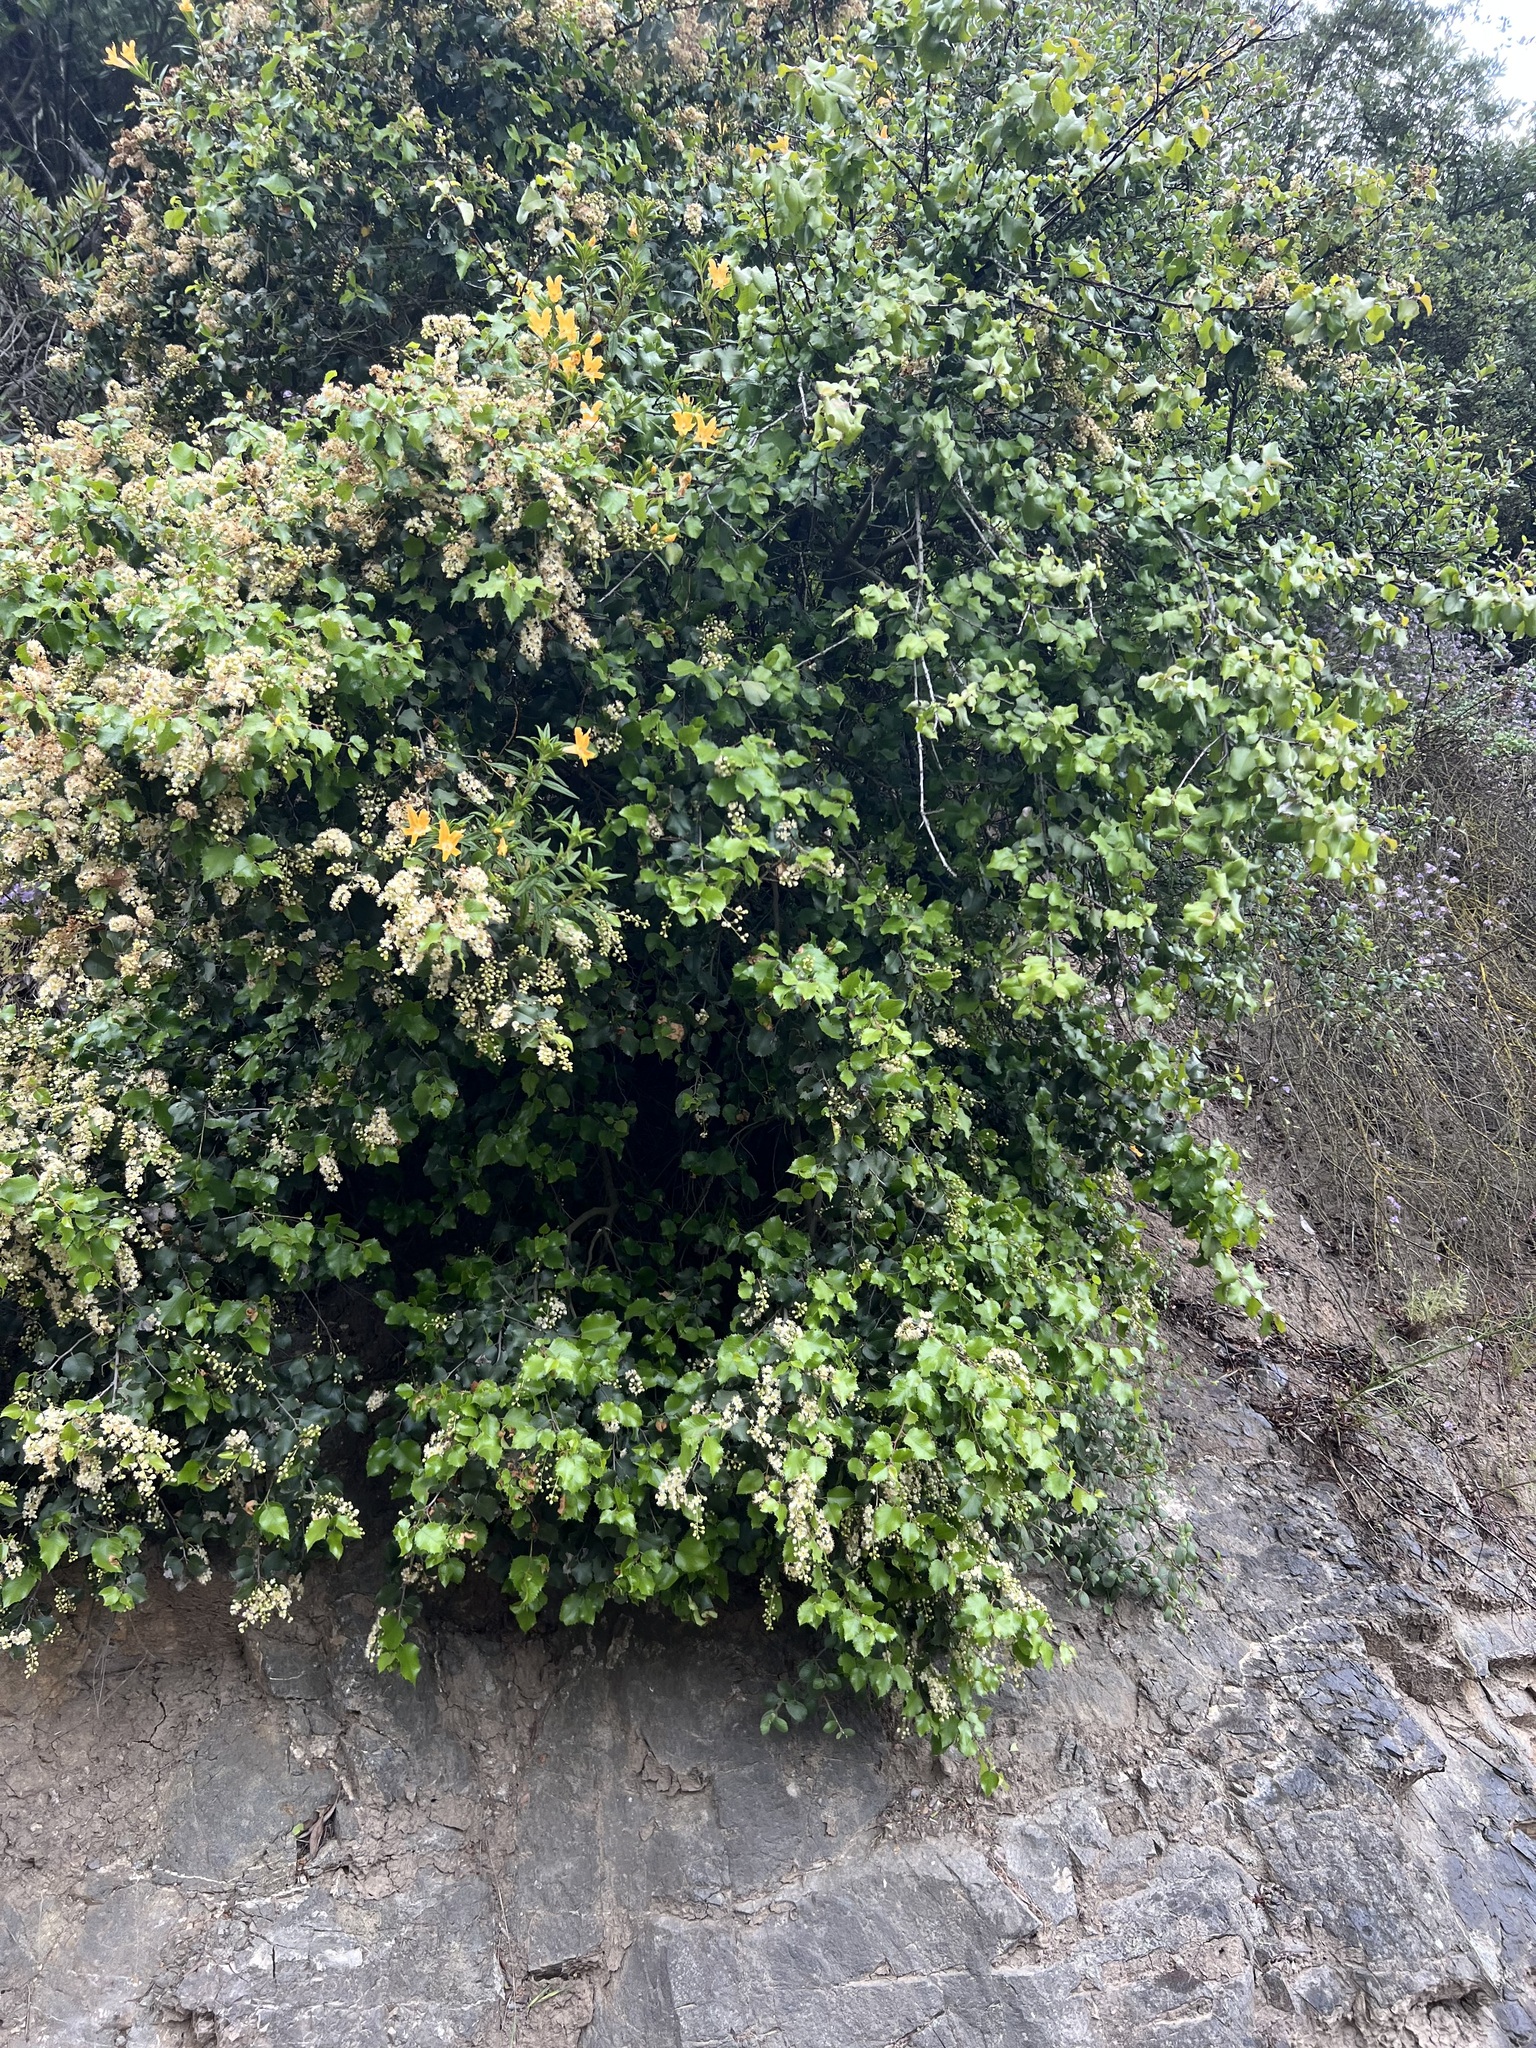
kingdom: Plantae
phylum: Tracheophyta
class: Magnoliopsida
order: Rosales
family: Rosaceae
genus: Prunus
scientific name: Prunus ilicifolia
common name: Hollyleaf cherry
